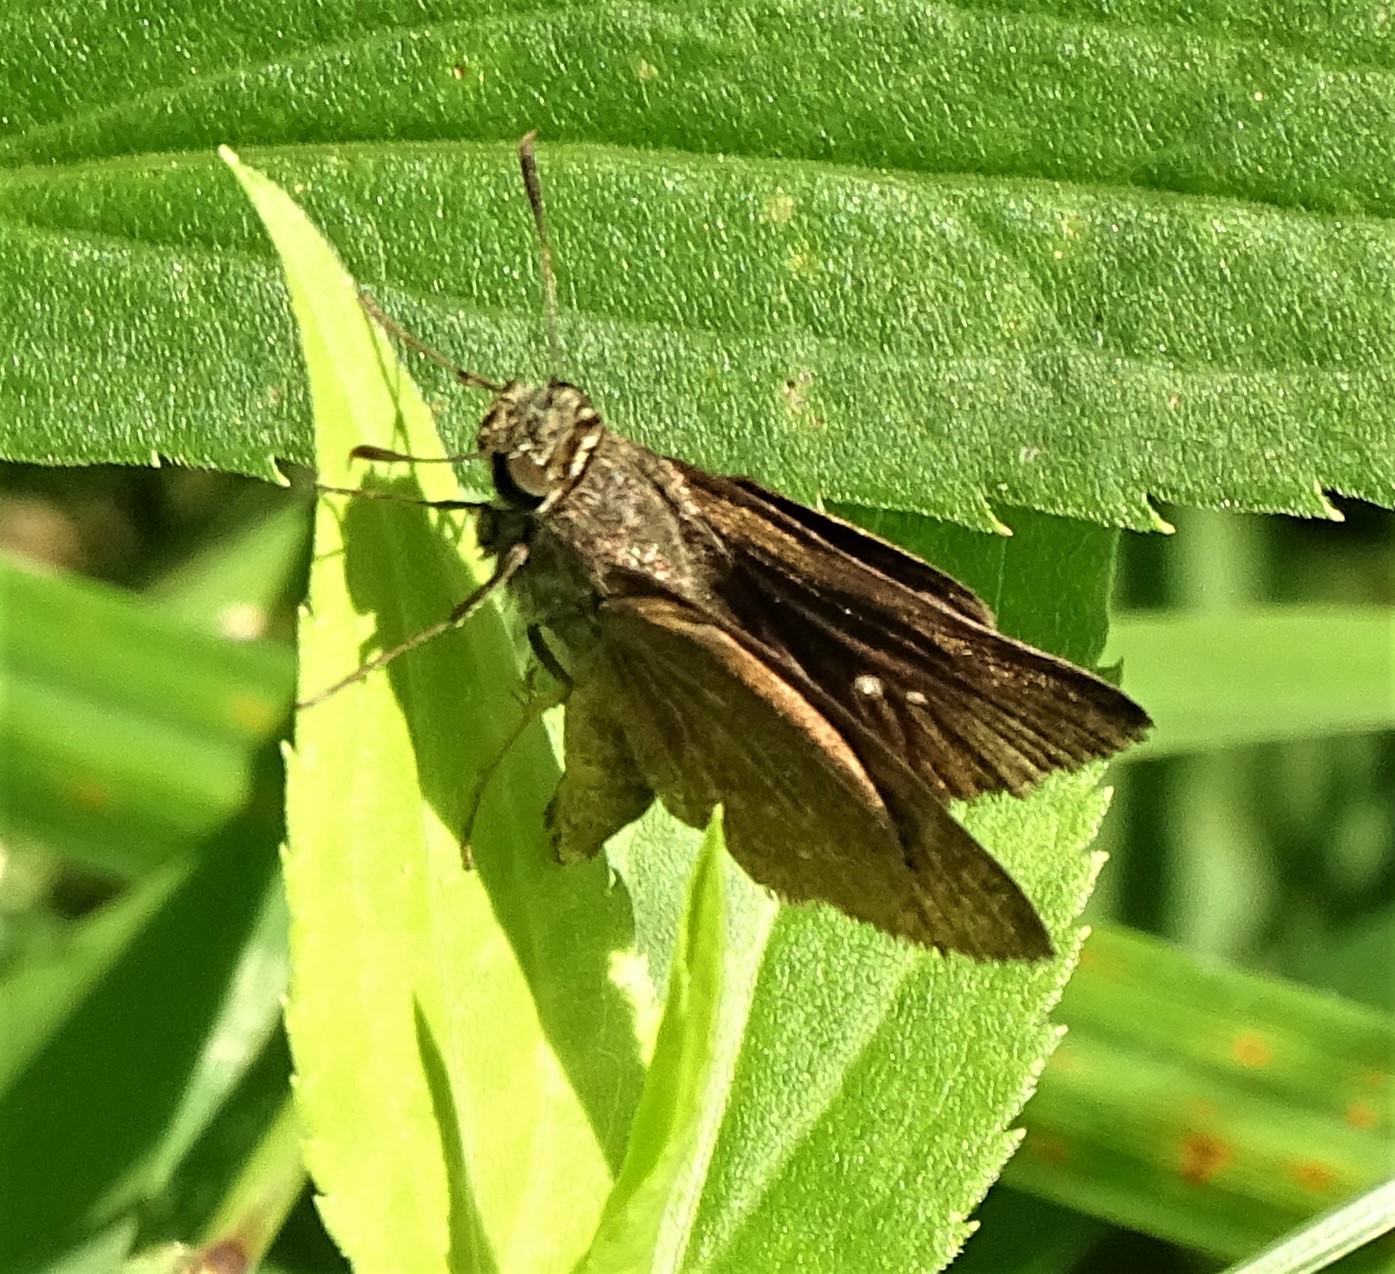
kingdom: Animalia
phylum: Arthropoda
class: Insecta
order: Lepidoptera
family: Hesperiidae
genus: Euphyes
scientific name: Euphyes vestris
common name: Dun skipper
